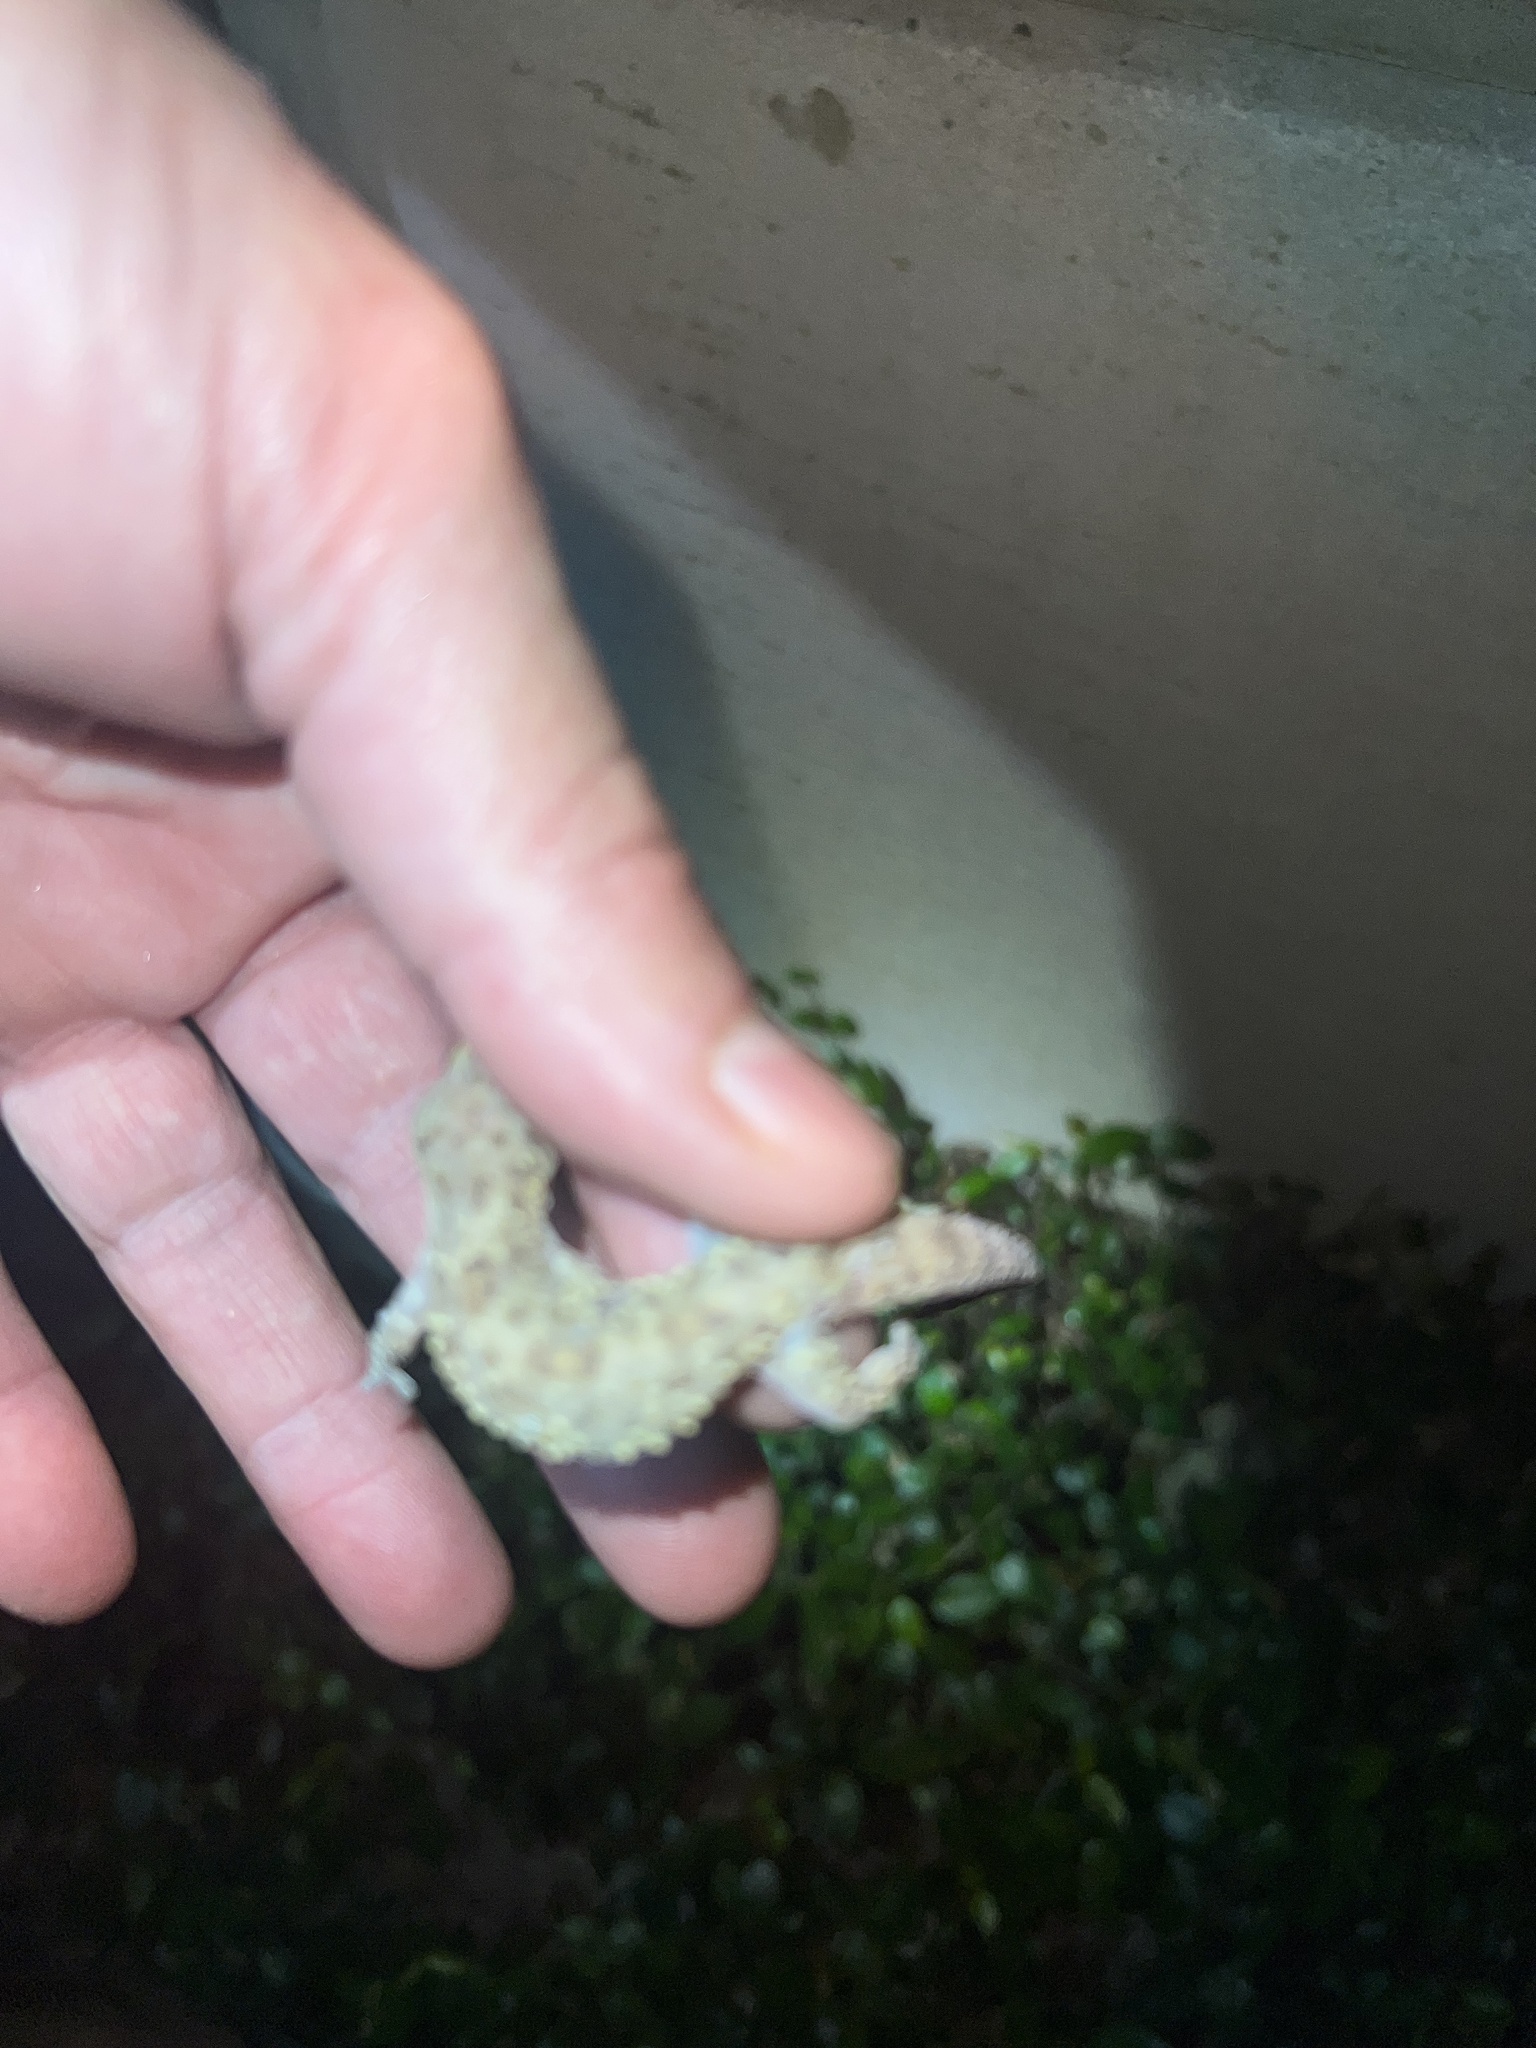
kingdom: Animalia
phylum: Chordata
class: Squamata
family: Gekkonidae
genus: Hemidactylus
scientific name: Hemidactylus turcicus
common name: Turkish gecko
